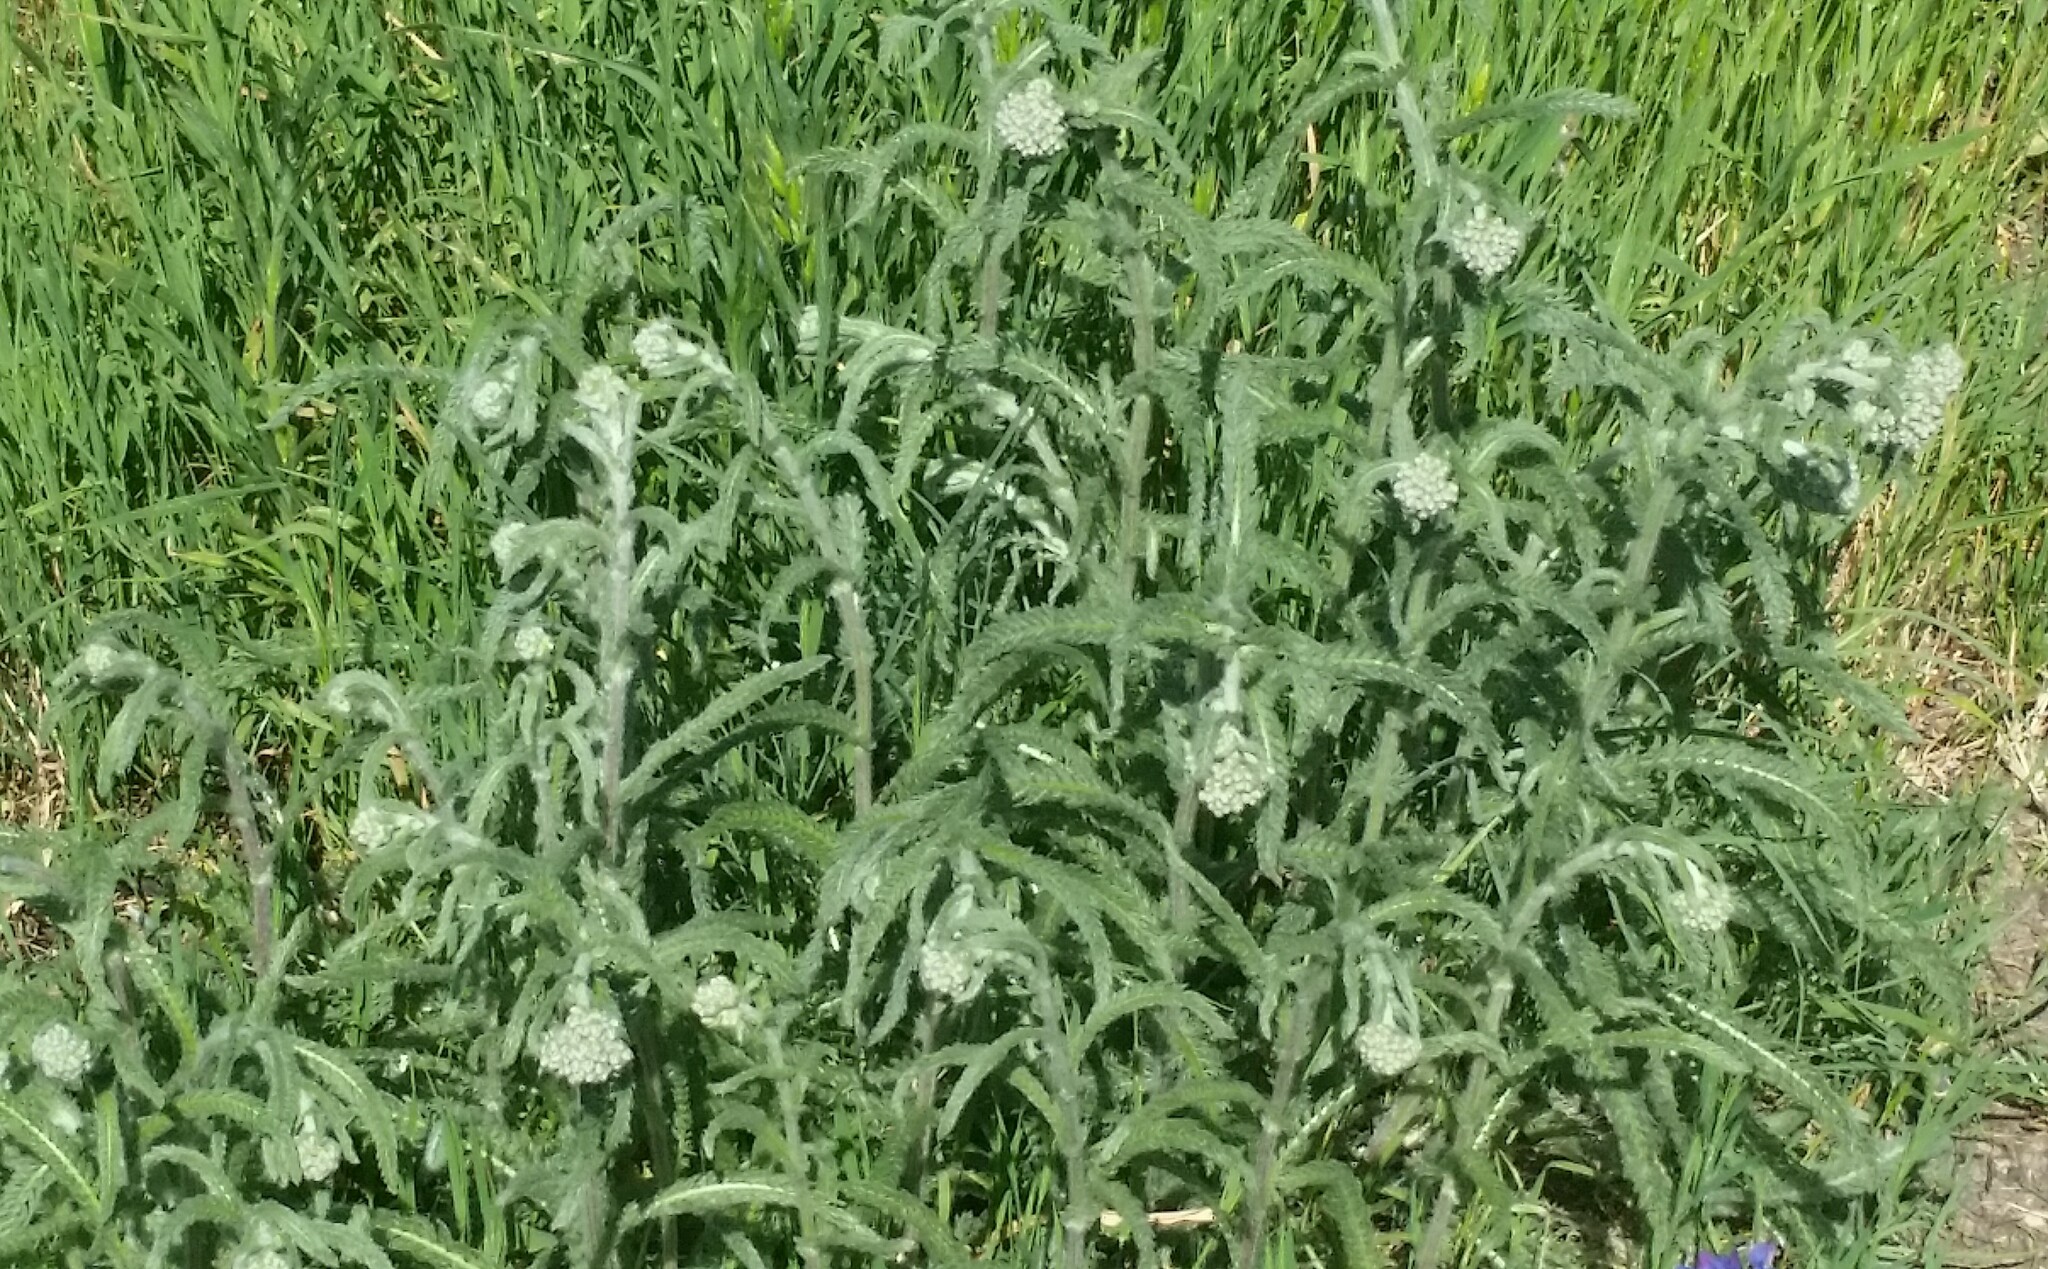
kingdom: Plantae
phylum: Tracheophyta
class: Magnoliopsida
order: Asterales
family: Asteraceae
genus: Achillea
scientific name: Achillea millefolium
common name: Yarrow
